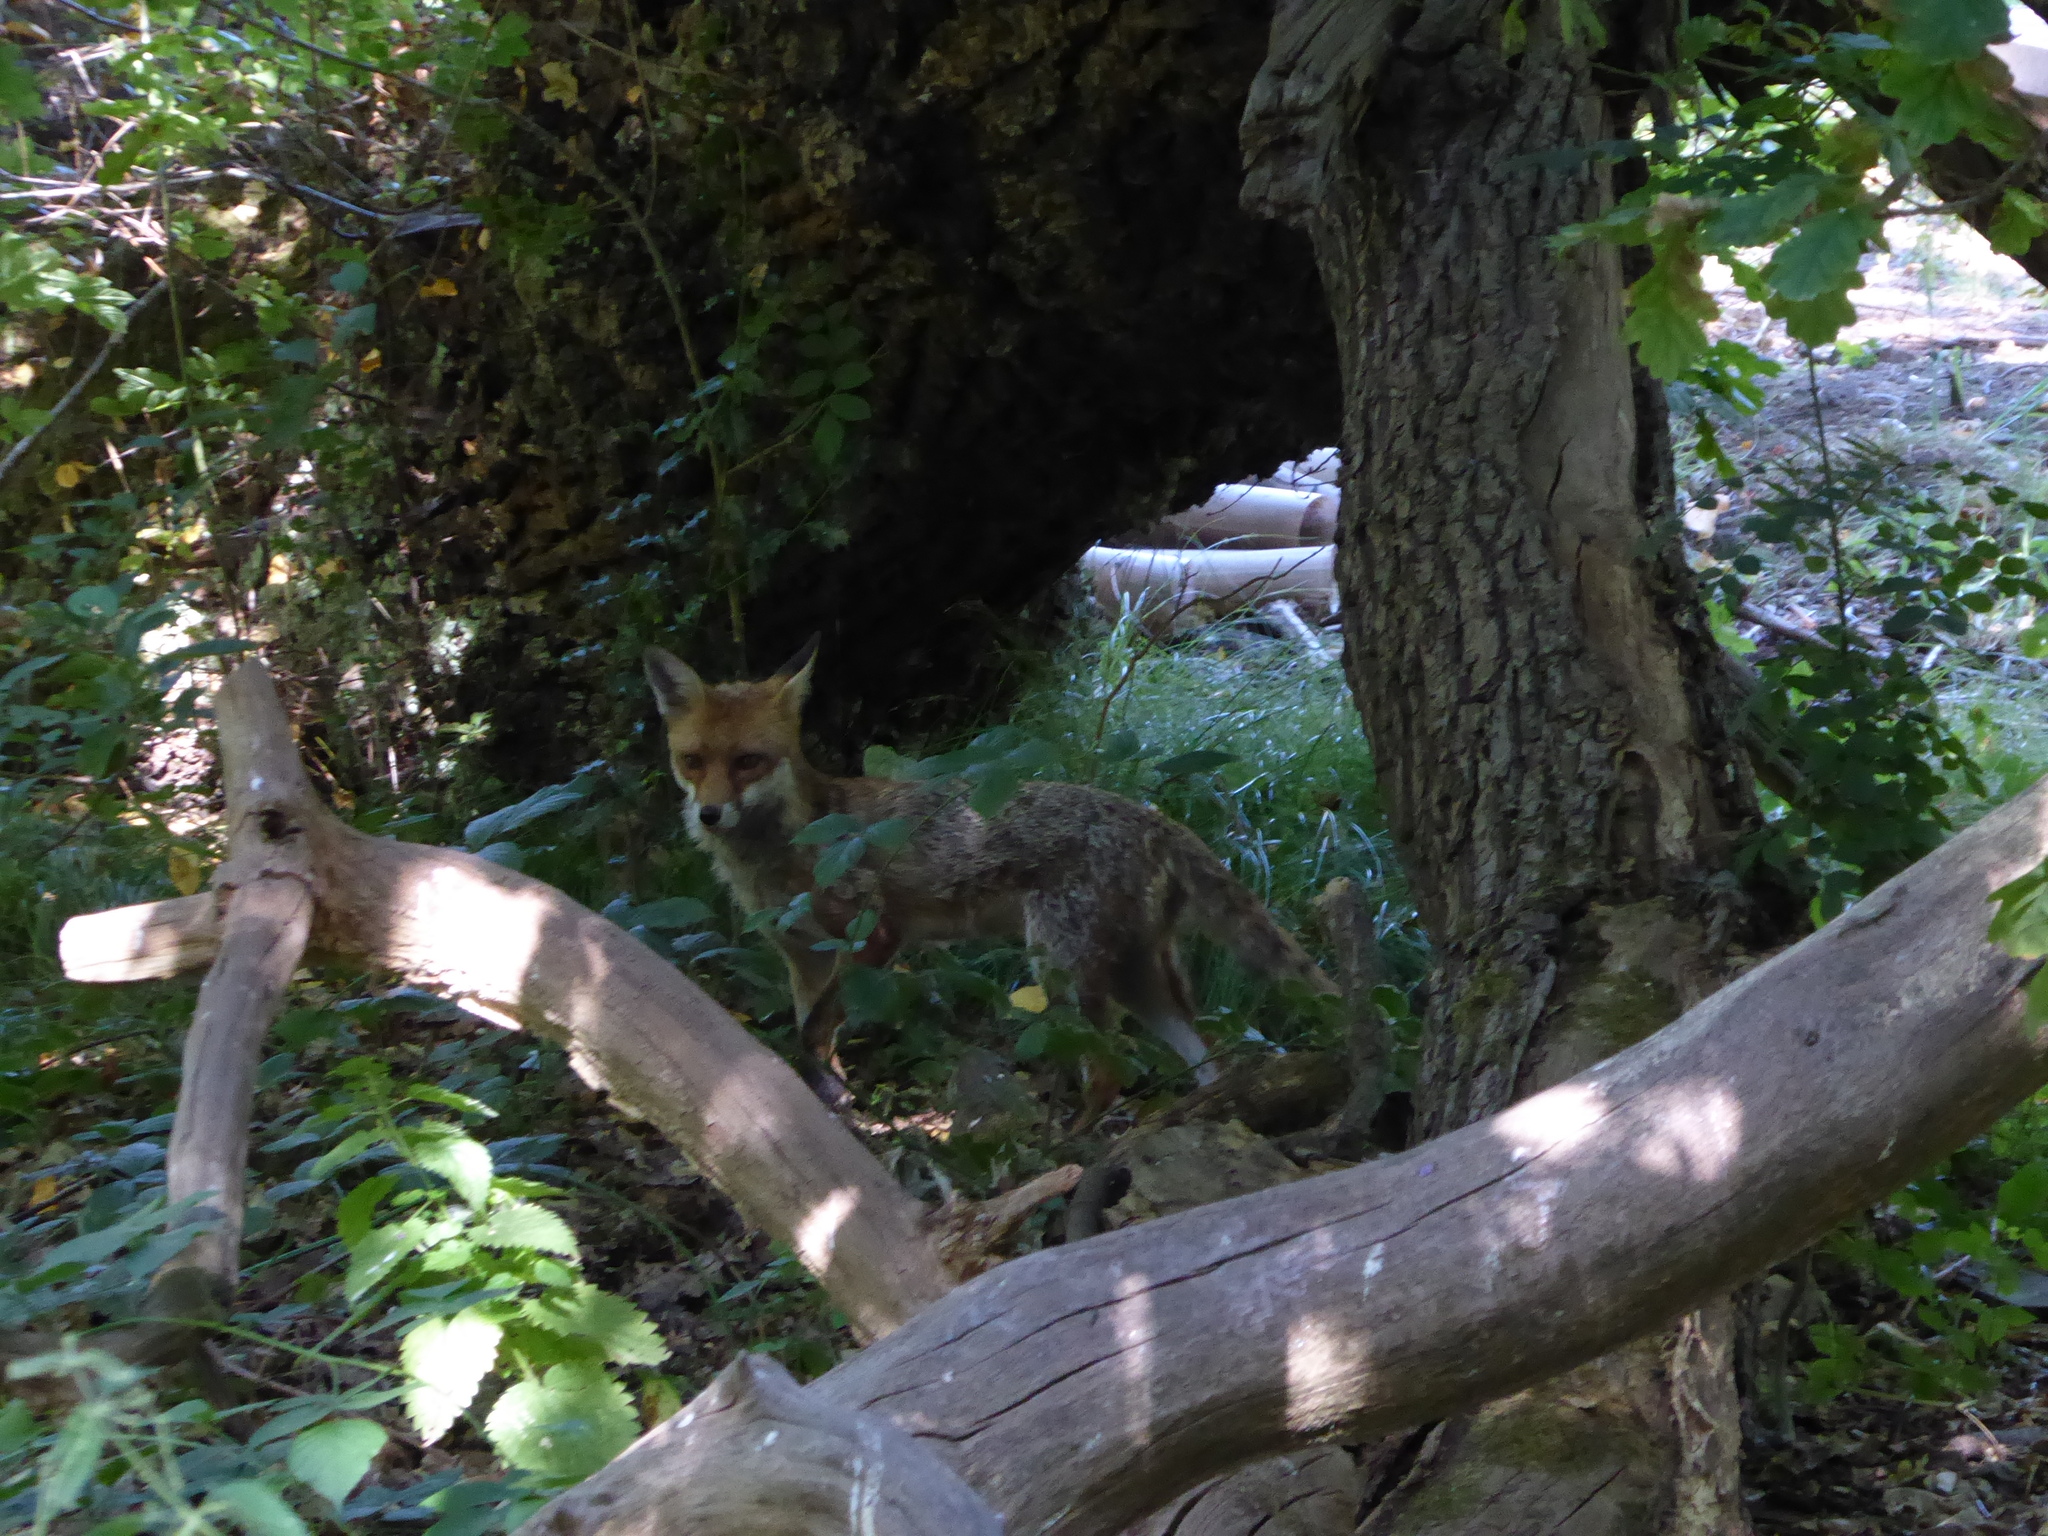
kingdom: Animalia
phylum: Chordata
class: Mammalia
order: Carnivora
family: Canidae
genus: Vulpes
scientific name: Vulpes vulpes
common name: Red fox
